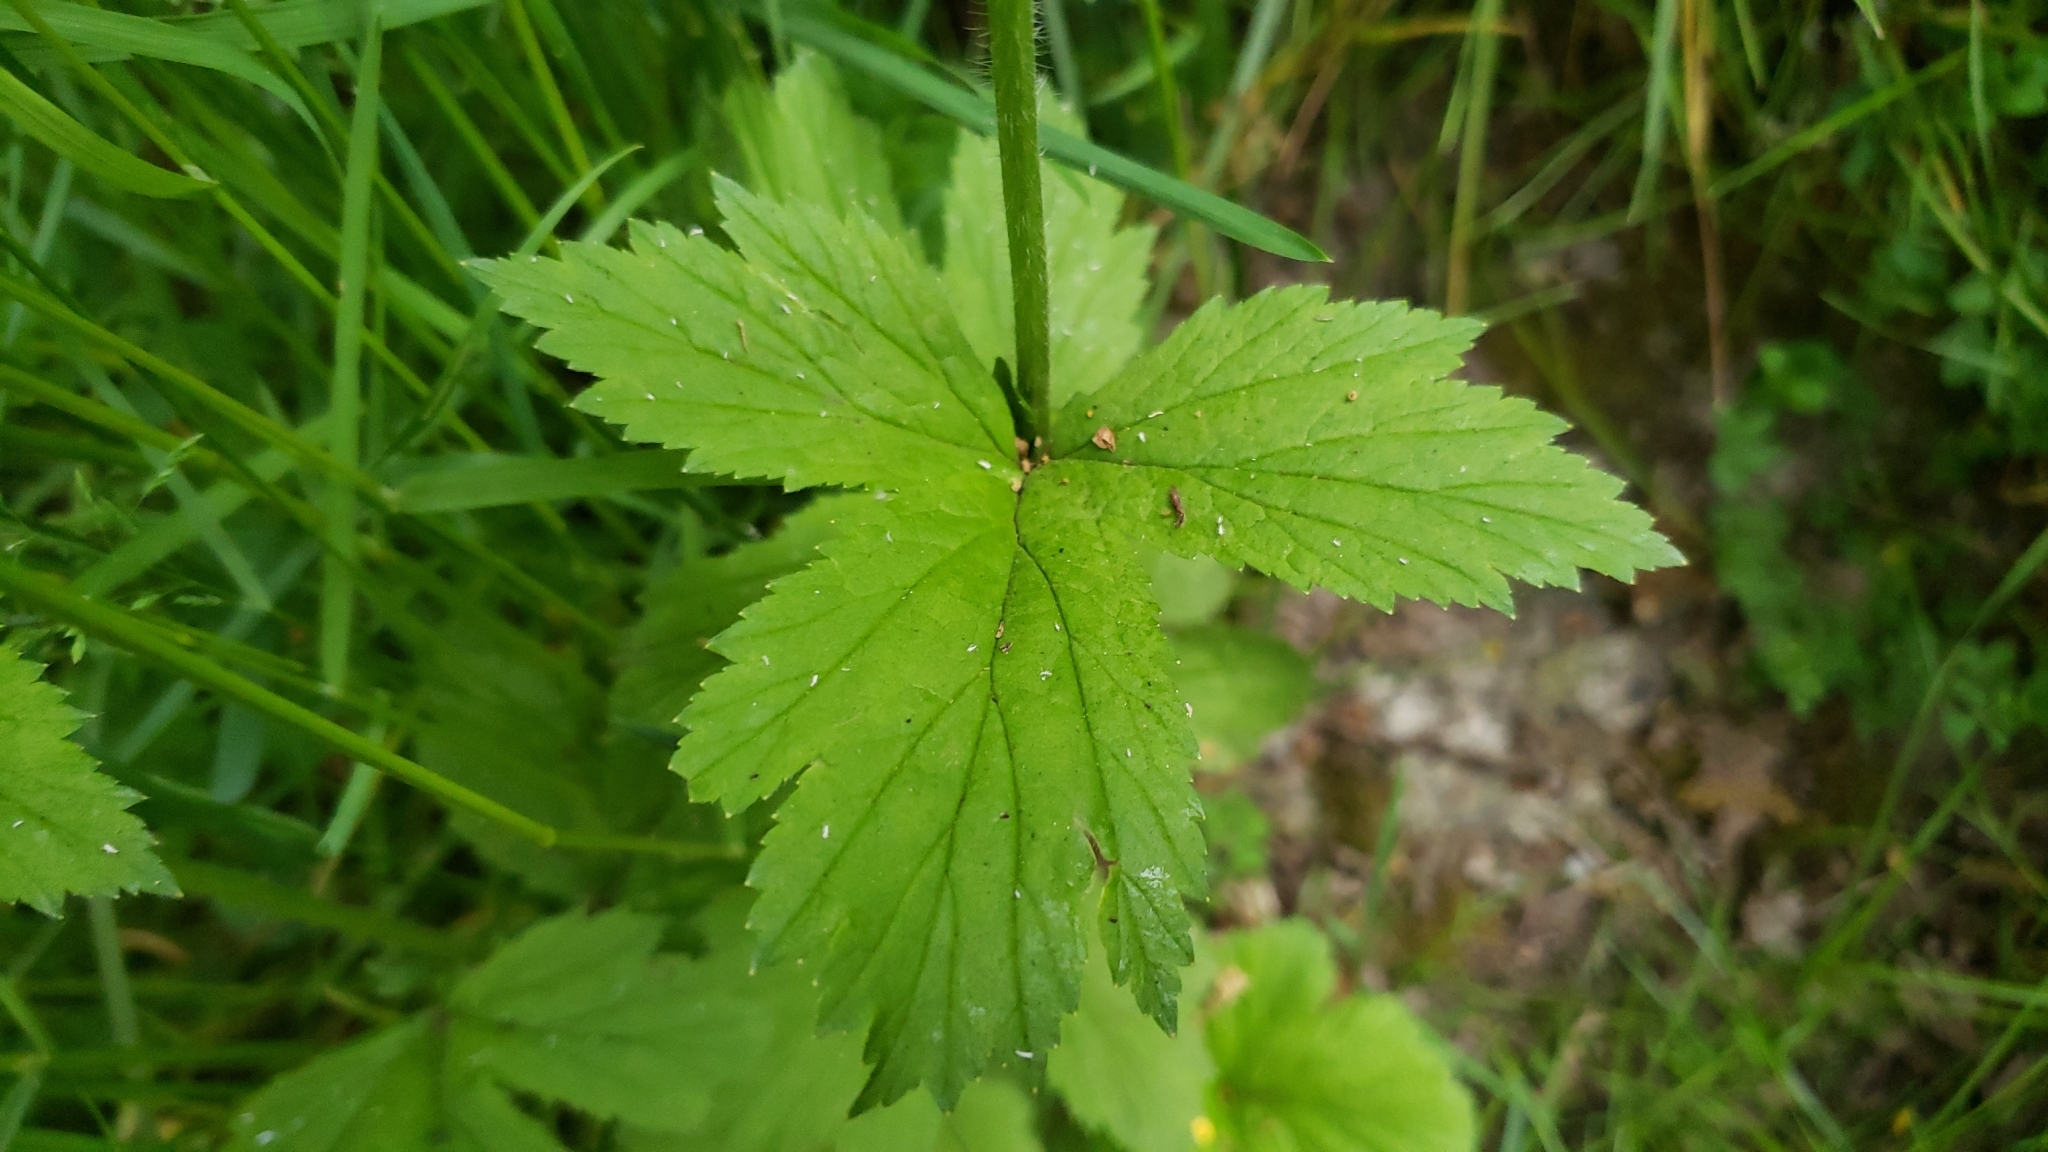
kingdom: Plantae
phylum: Tracheophyta
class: Magnoliopsida
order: Rosales
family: Rosaceae
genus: Geum
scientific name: Geum macrophyllum
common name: Large-leaved avens
